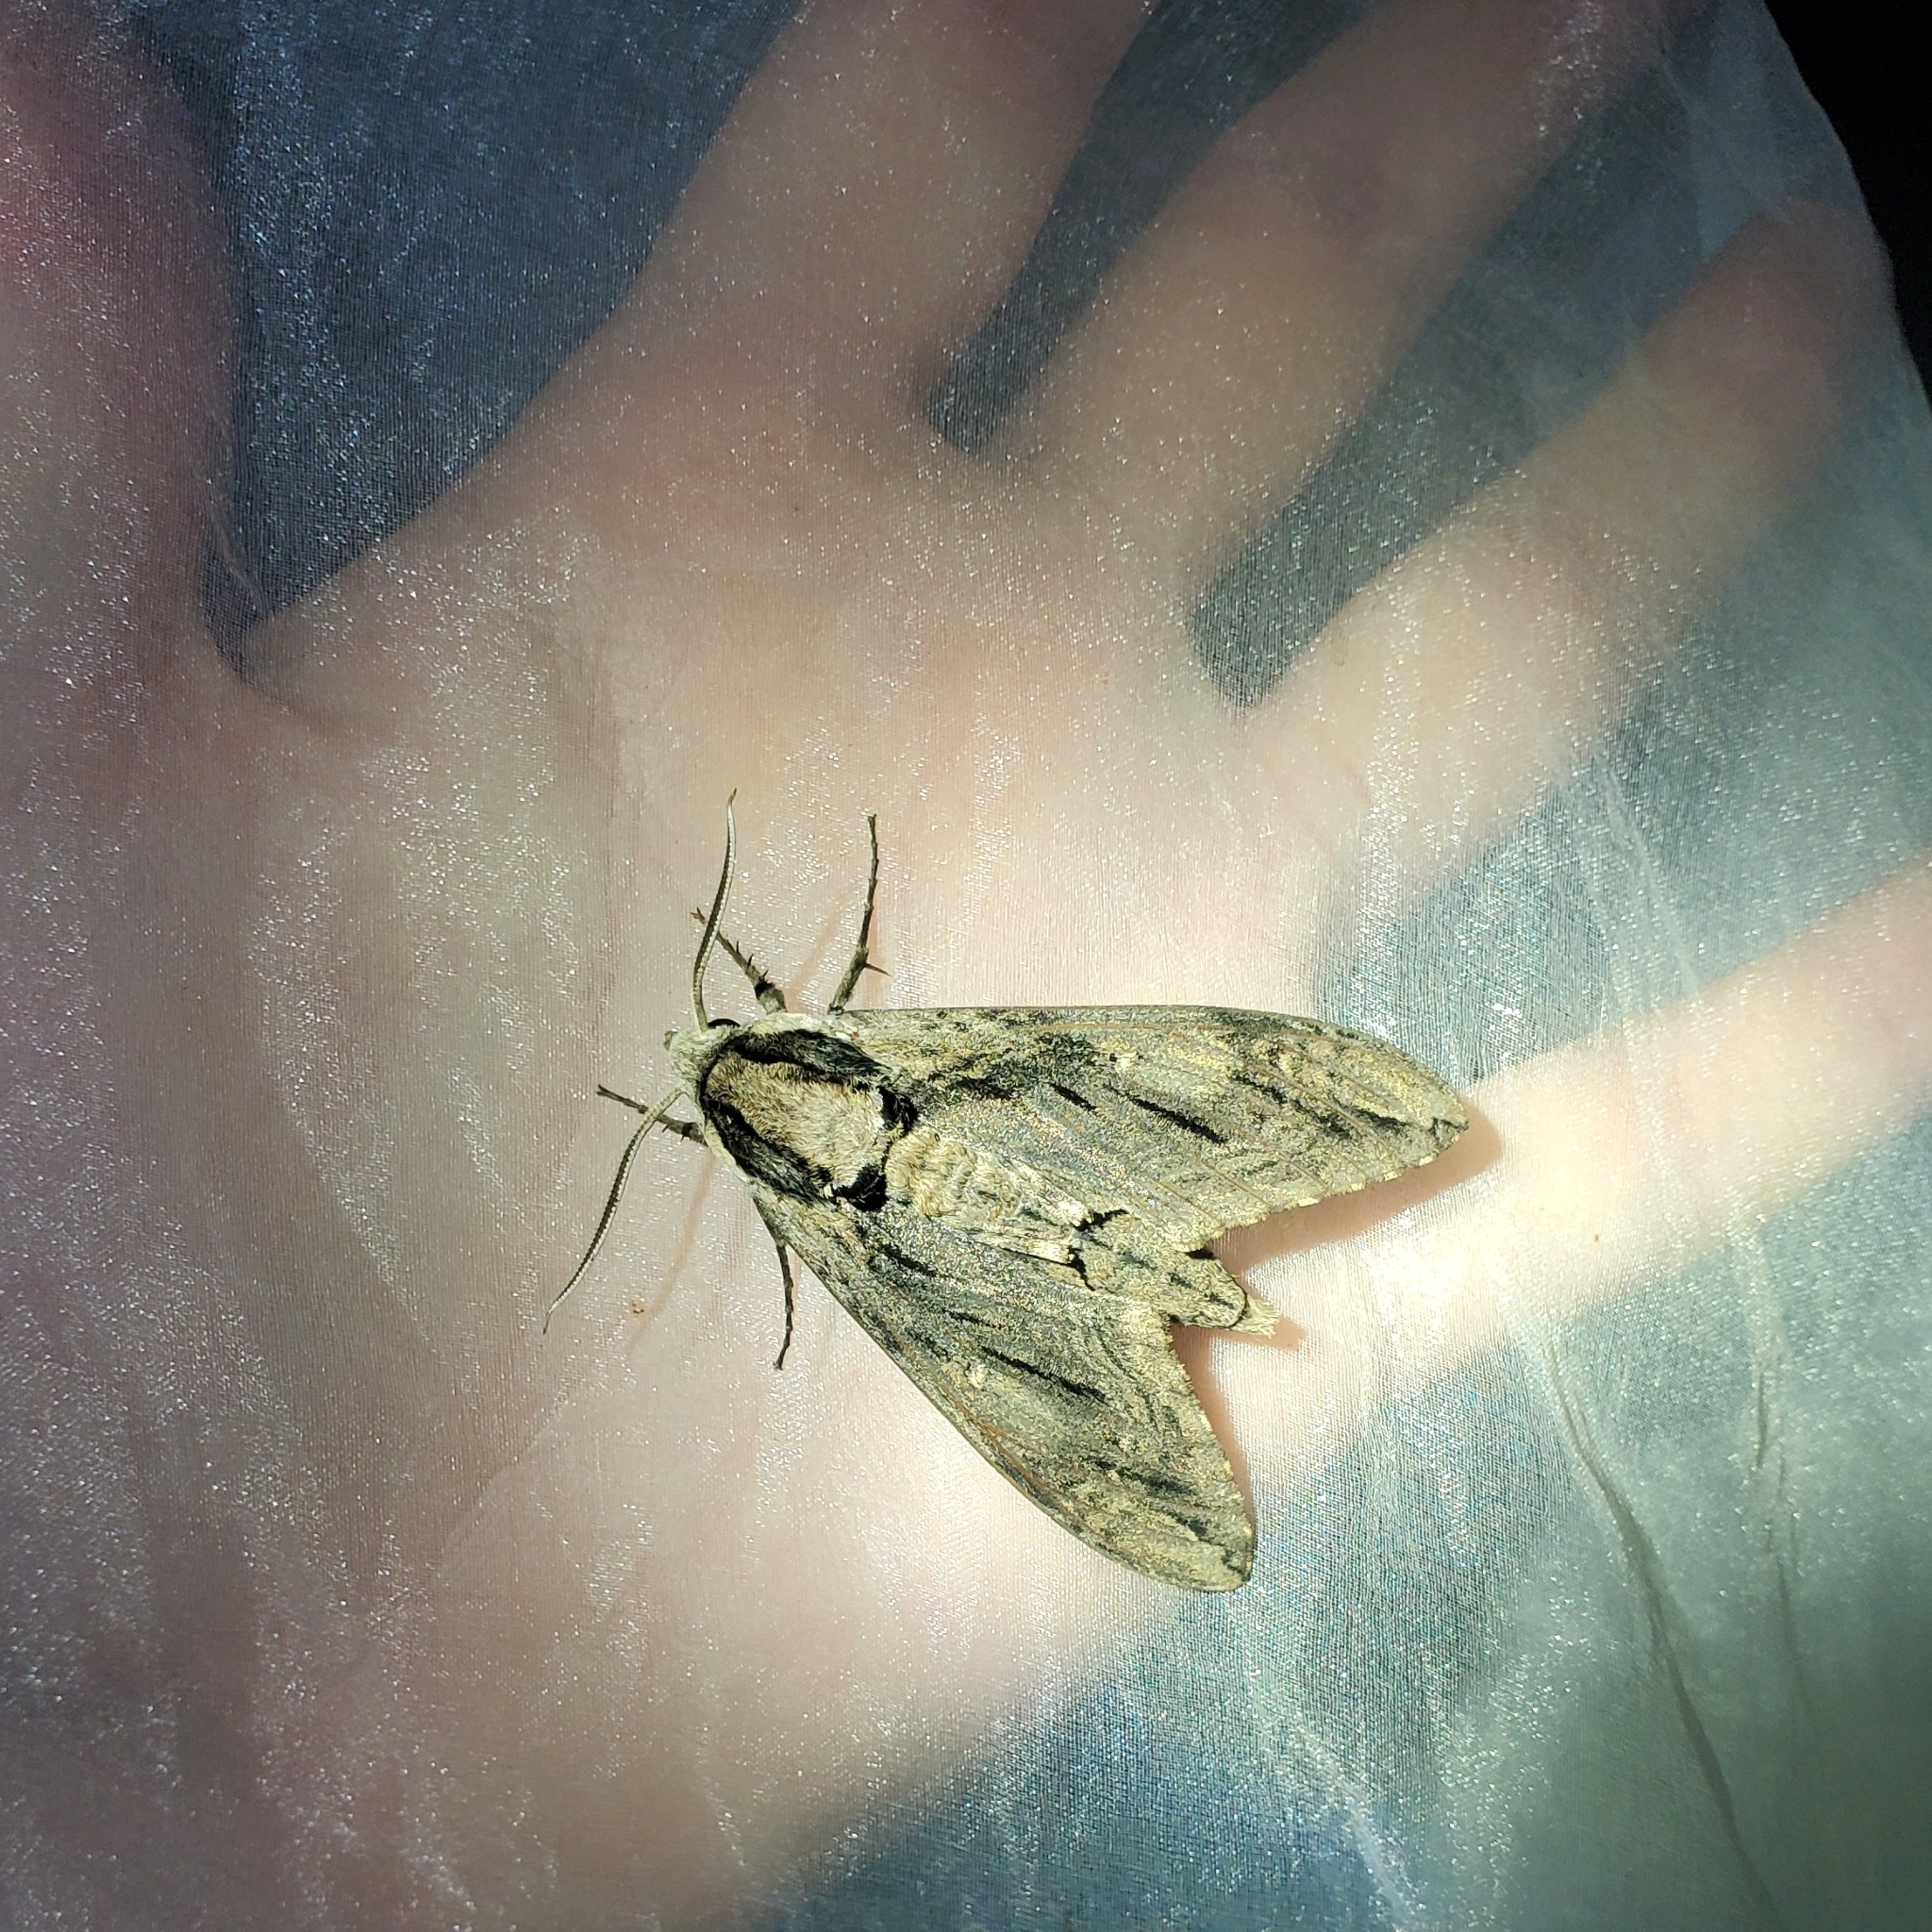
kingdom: Animalia
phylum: Arthropoda
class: Insecta
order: Lepidoptera
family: Sphingidae
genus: Ceratomia
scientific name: Ceratomia amyntor
